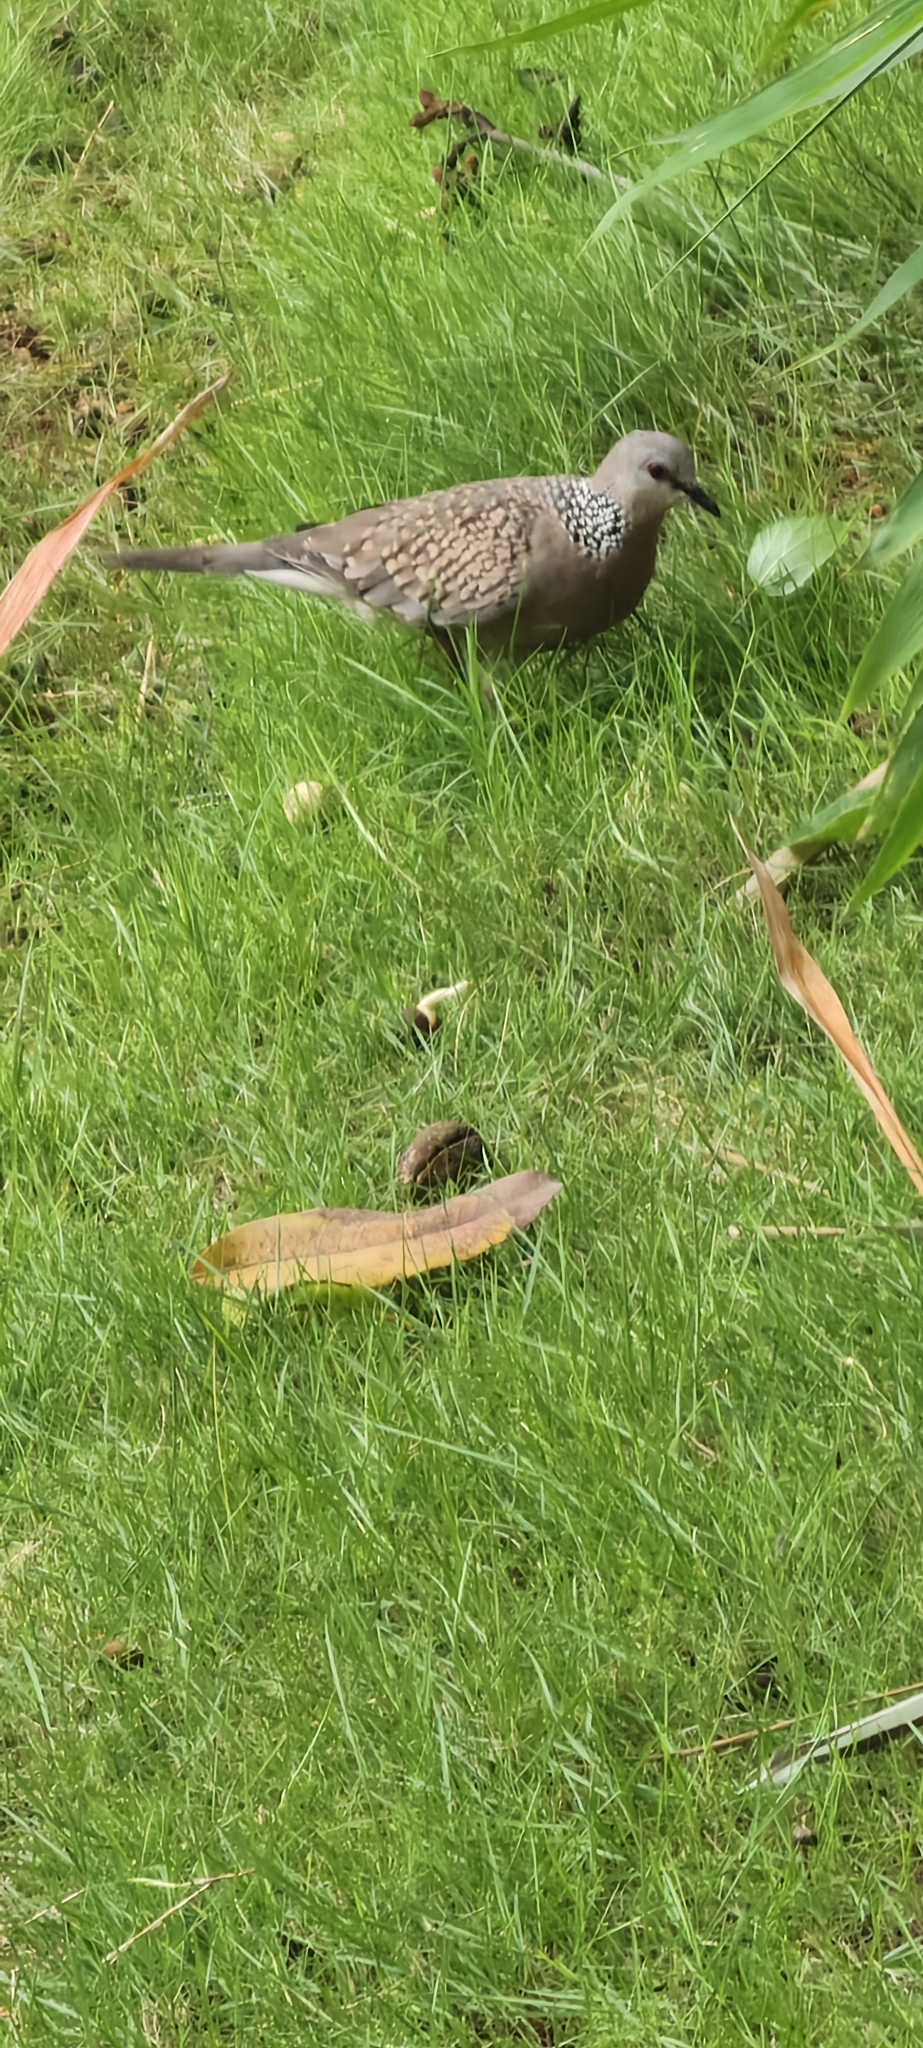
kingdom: Animalia
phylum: Chordata
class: Aves
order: Columbiformes
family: Columbidae
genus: Spilopelia
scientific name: Spilopelia chinensis
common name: Spotted dove
